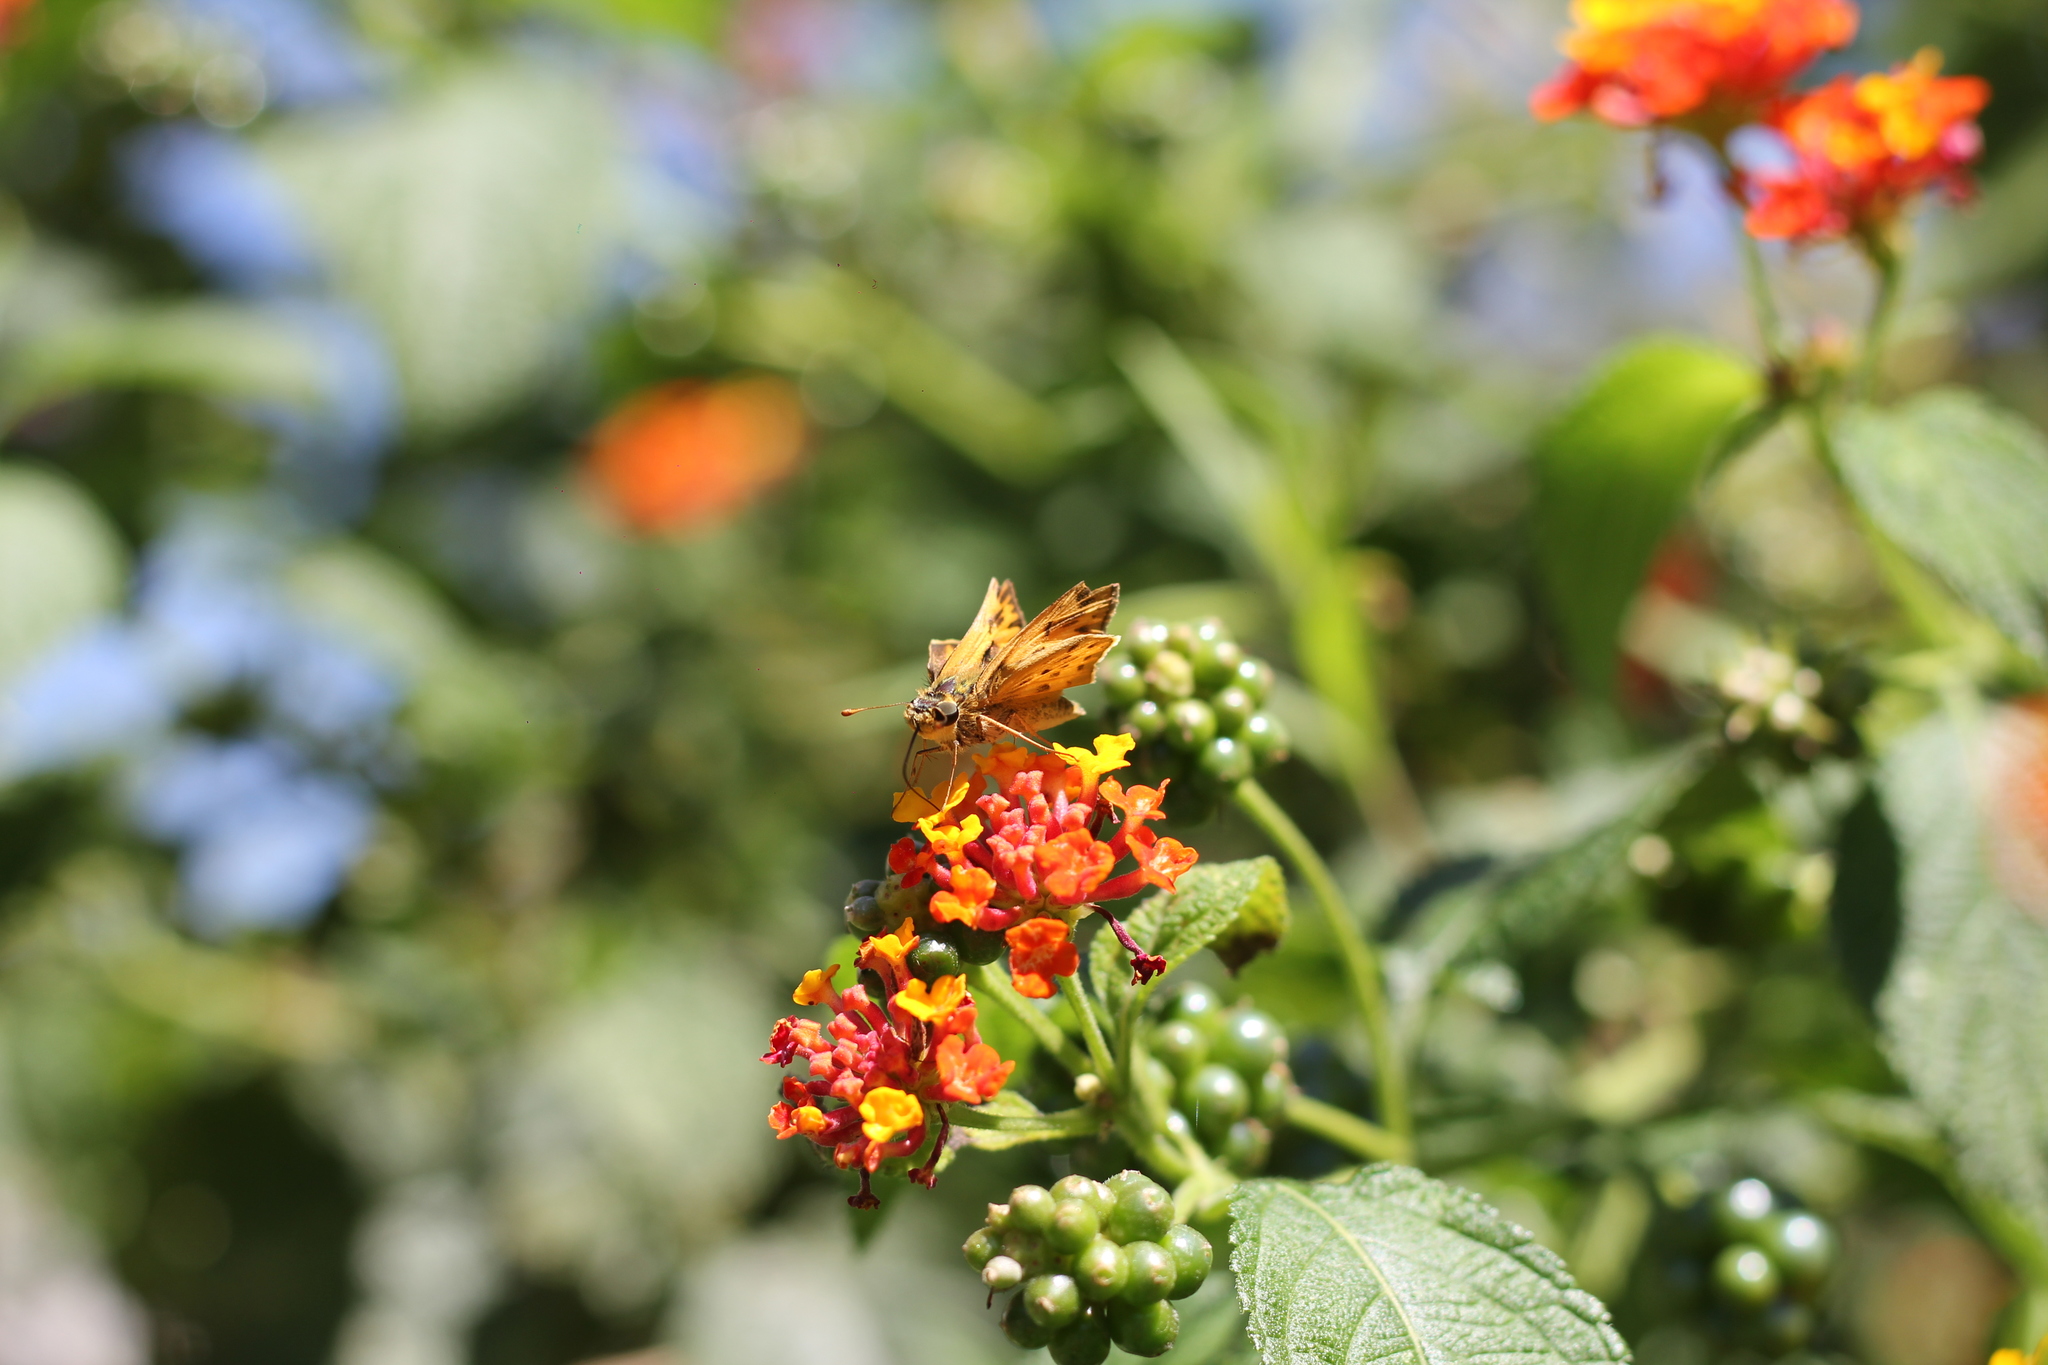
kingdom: Animalia
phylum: Arthropoda
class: Insecta
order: Lepidoptera
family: Hesperiidae
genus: Hylephila
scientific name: Hylephila phyleus
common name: Fiery skipper
